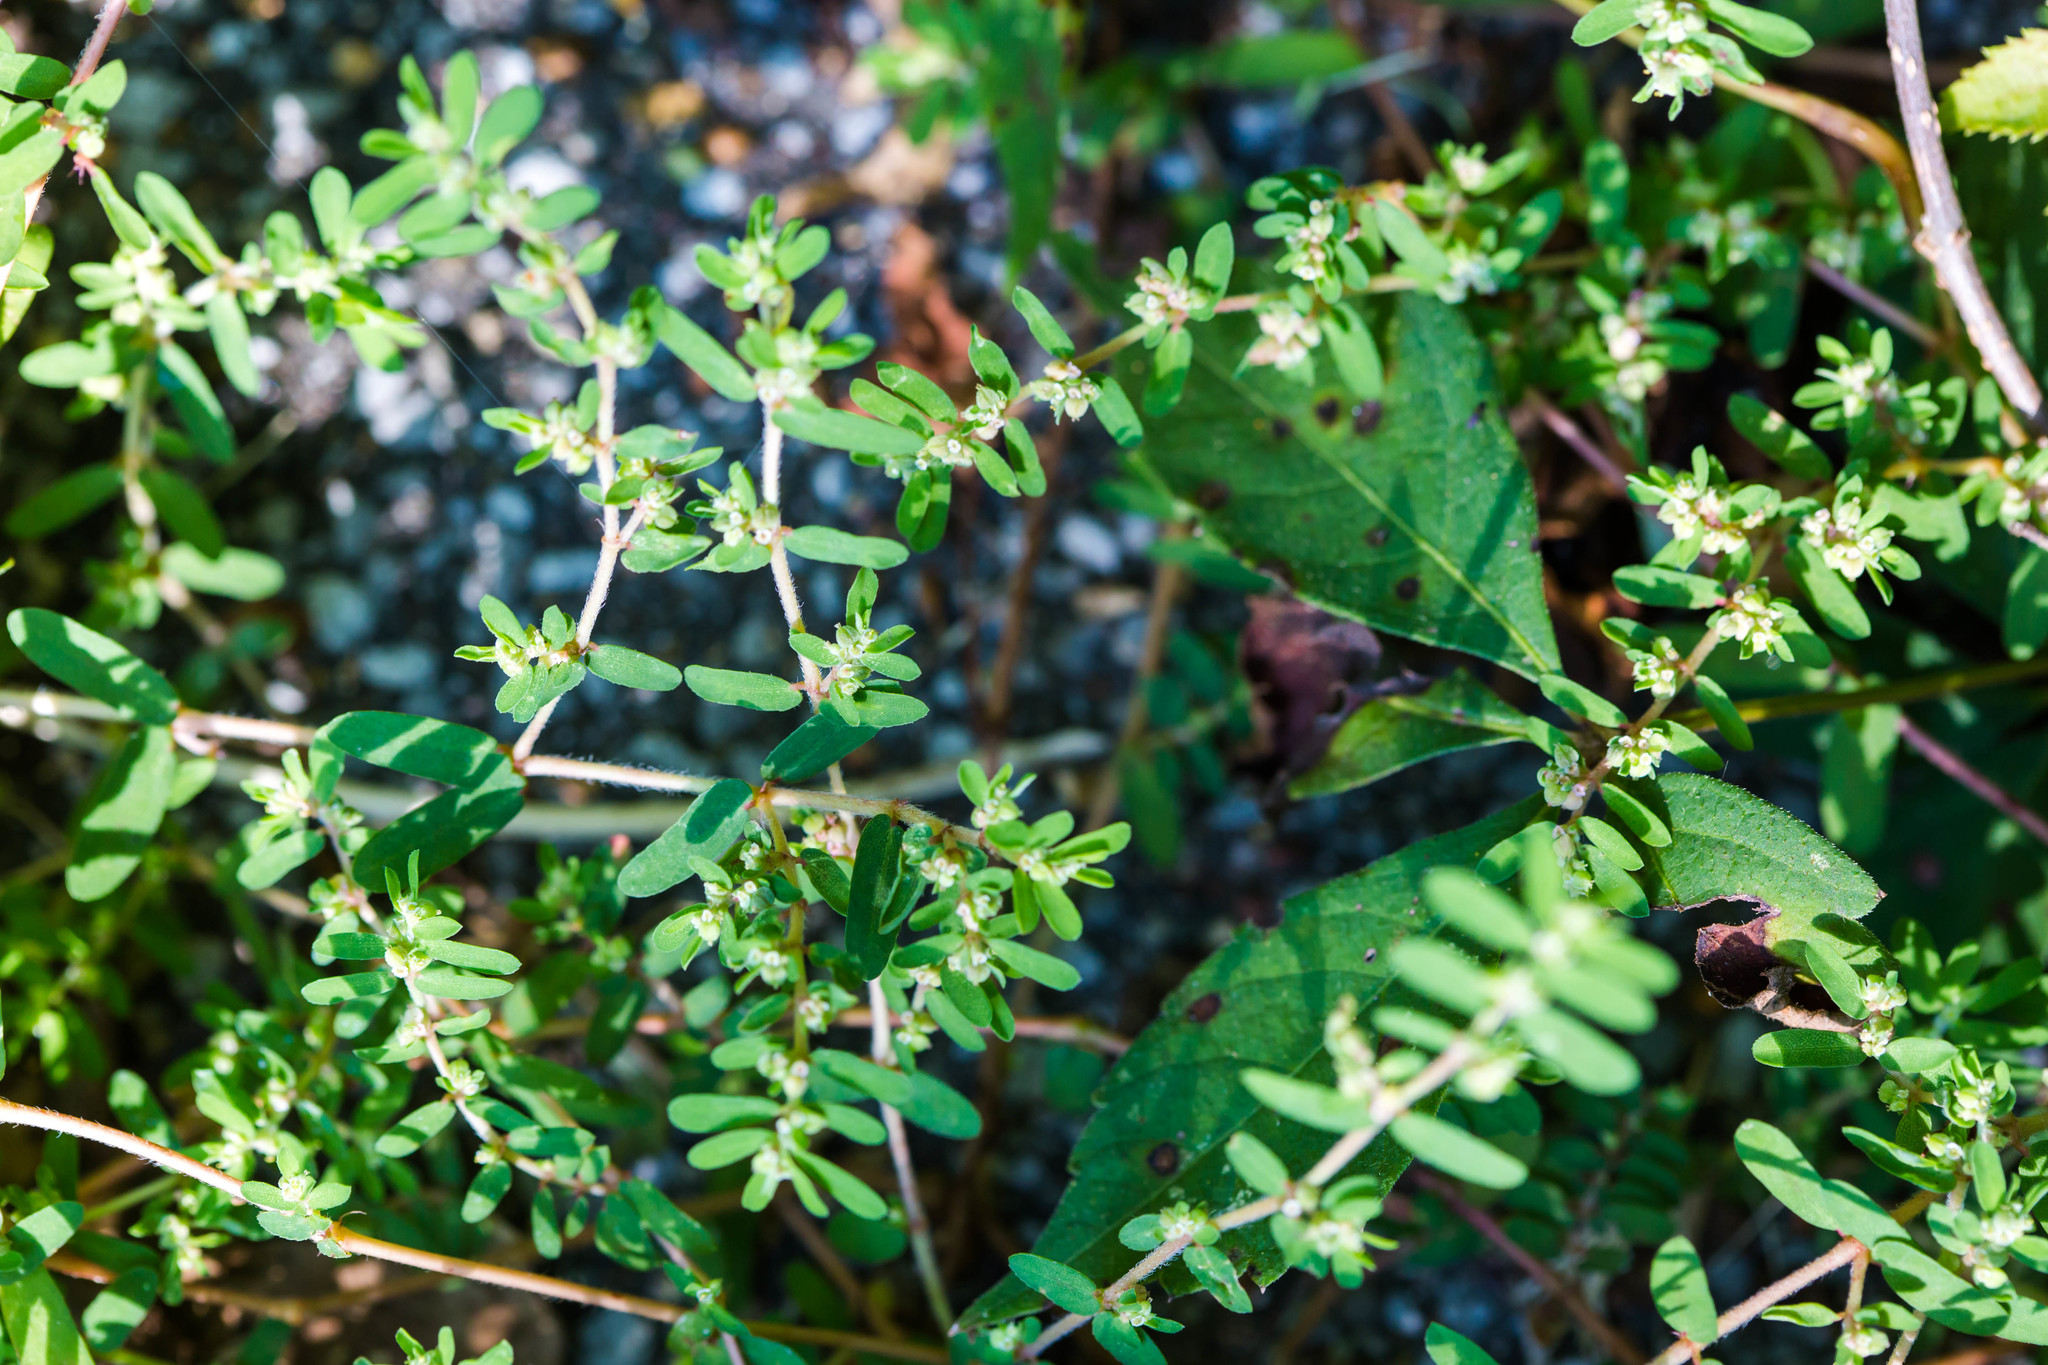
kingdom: Plantae
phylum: Tracheophyta
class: Magnoliopsida
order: Malpighiales
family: Euphorbiaceae
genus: Euphorbia
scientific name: Euphorbia maculata
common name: Spotted spurge
